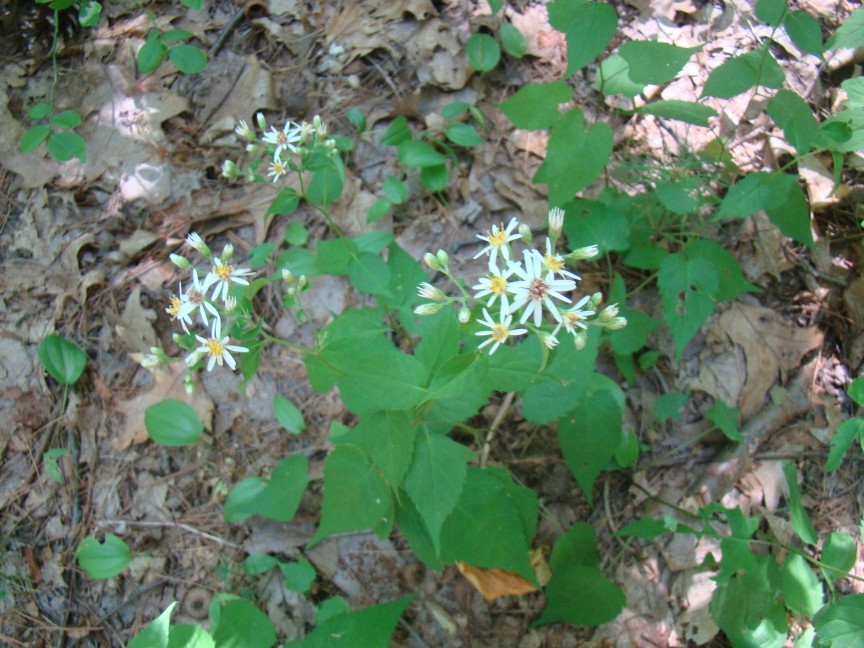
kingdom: Plantae
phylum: Tracheophyta
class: Magnoliopsida
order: Asterales
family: Asteraceae
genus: Eurybia
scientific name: Eurybia divaricata
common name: White wood aster
